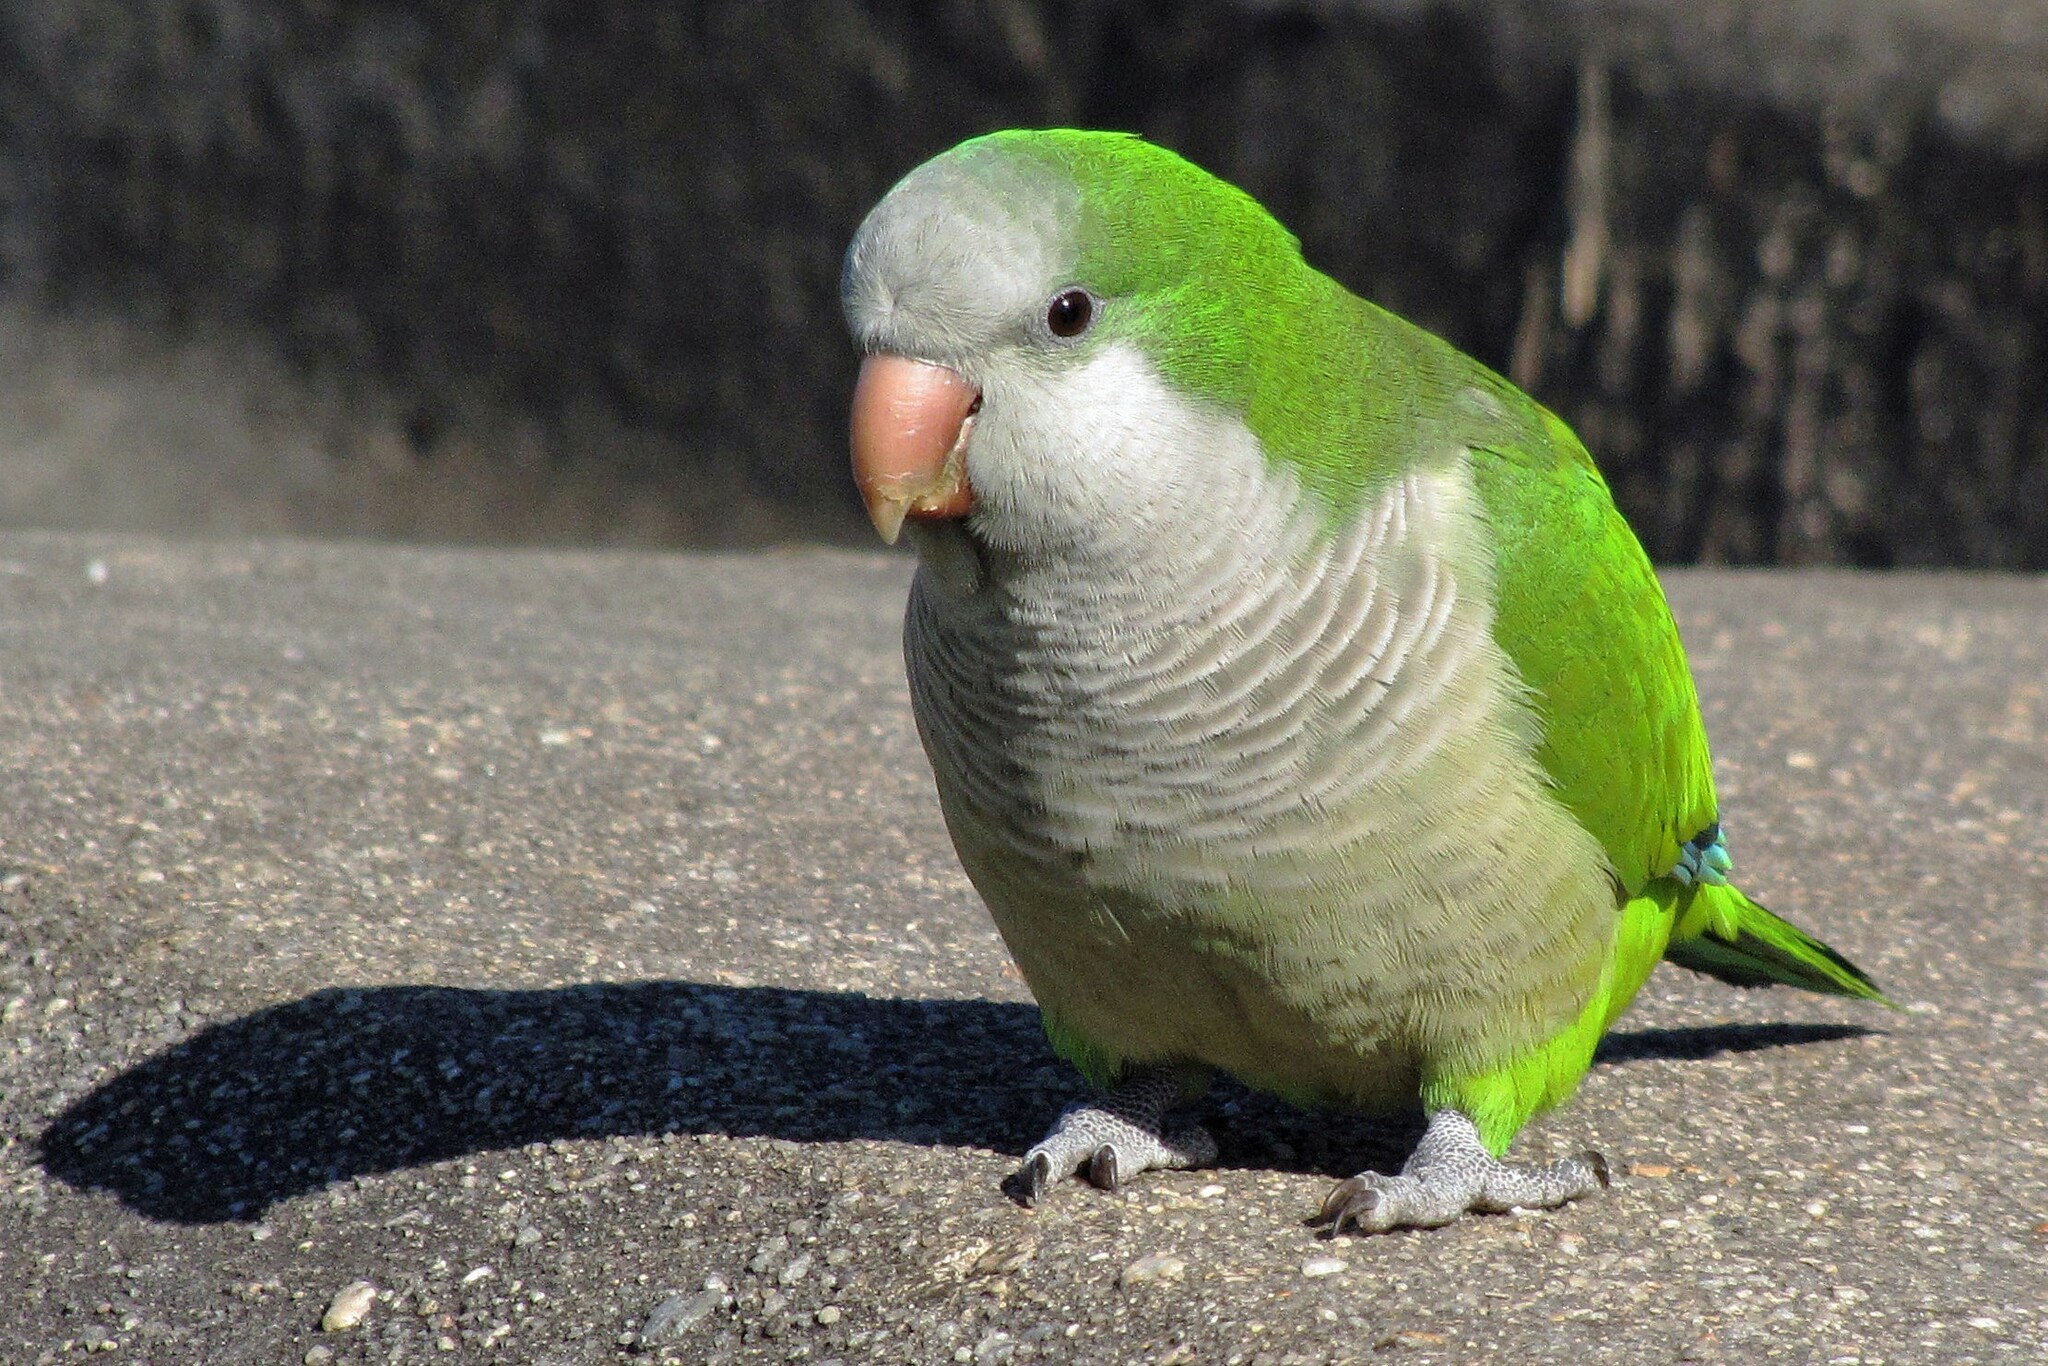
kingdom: Animalia
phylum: Chordata
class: Aves
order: Psittaciformes
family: Psittacidae
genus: Myiopsitta
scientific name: Myiopsitta monachus
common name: Monk parakeet
